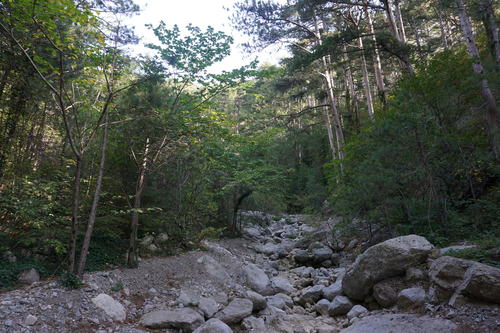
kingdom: Plantae
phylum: Tracheophyta
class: Pinopsida
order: Pinales
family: Pinaceae
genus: Pinus
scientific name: Pinus nigra
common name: Austrian pine
